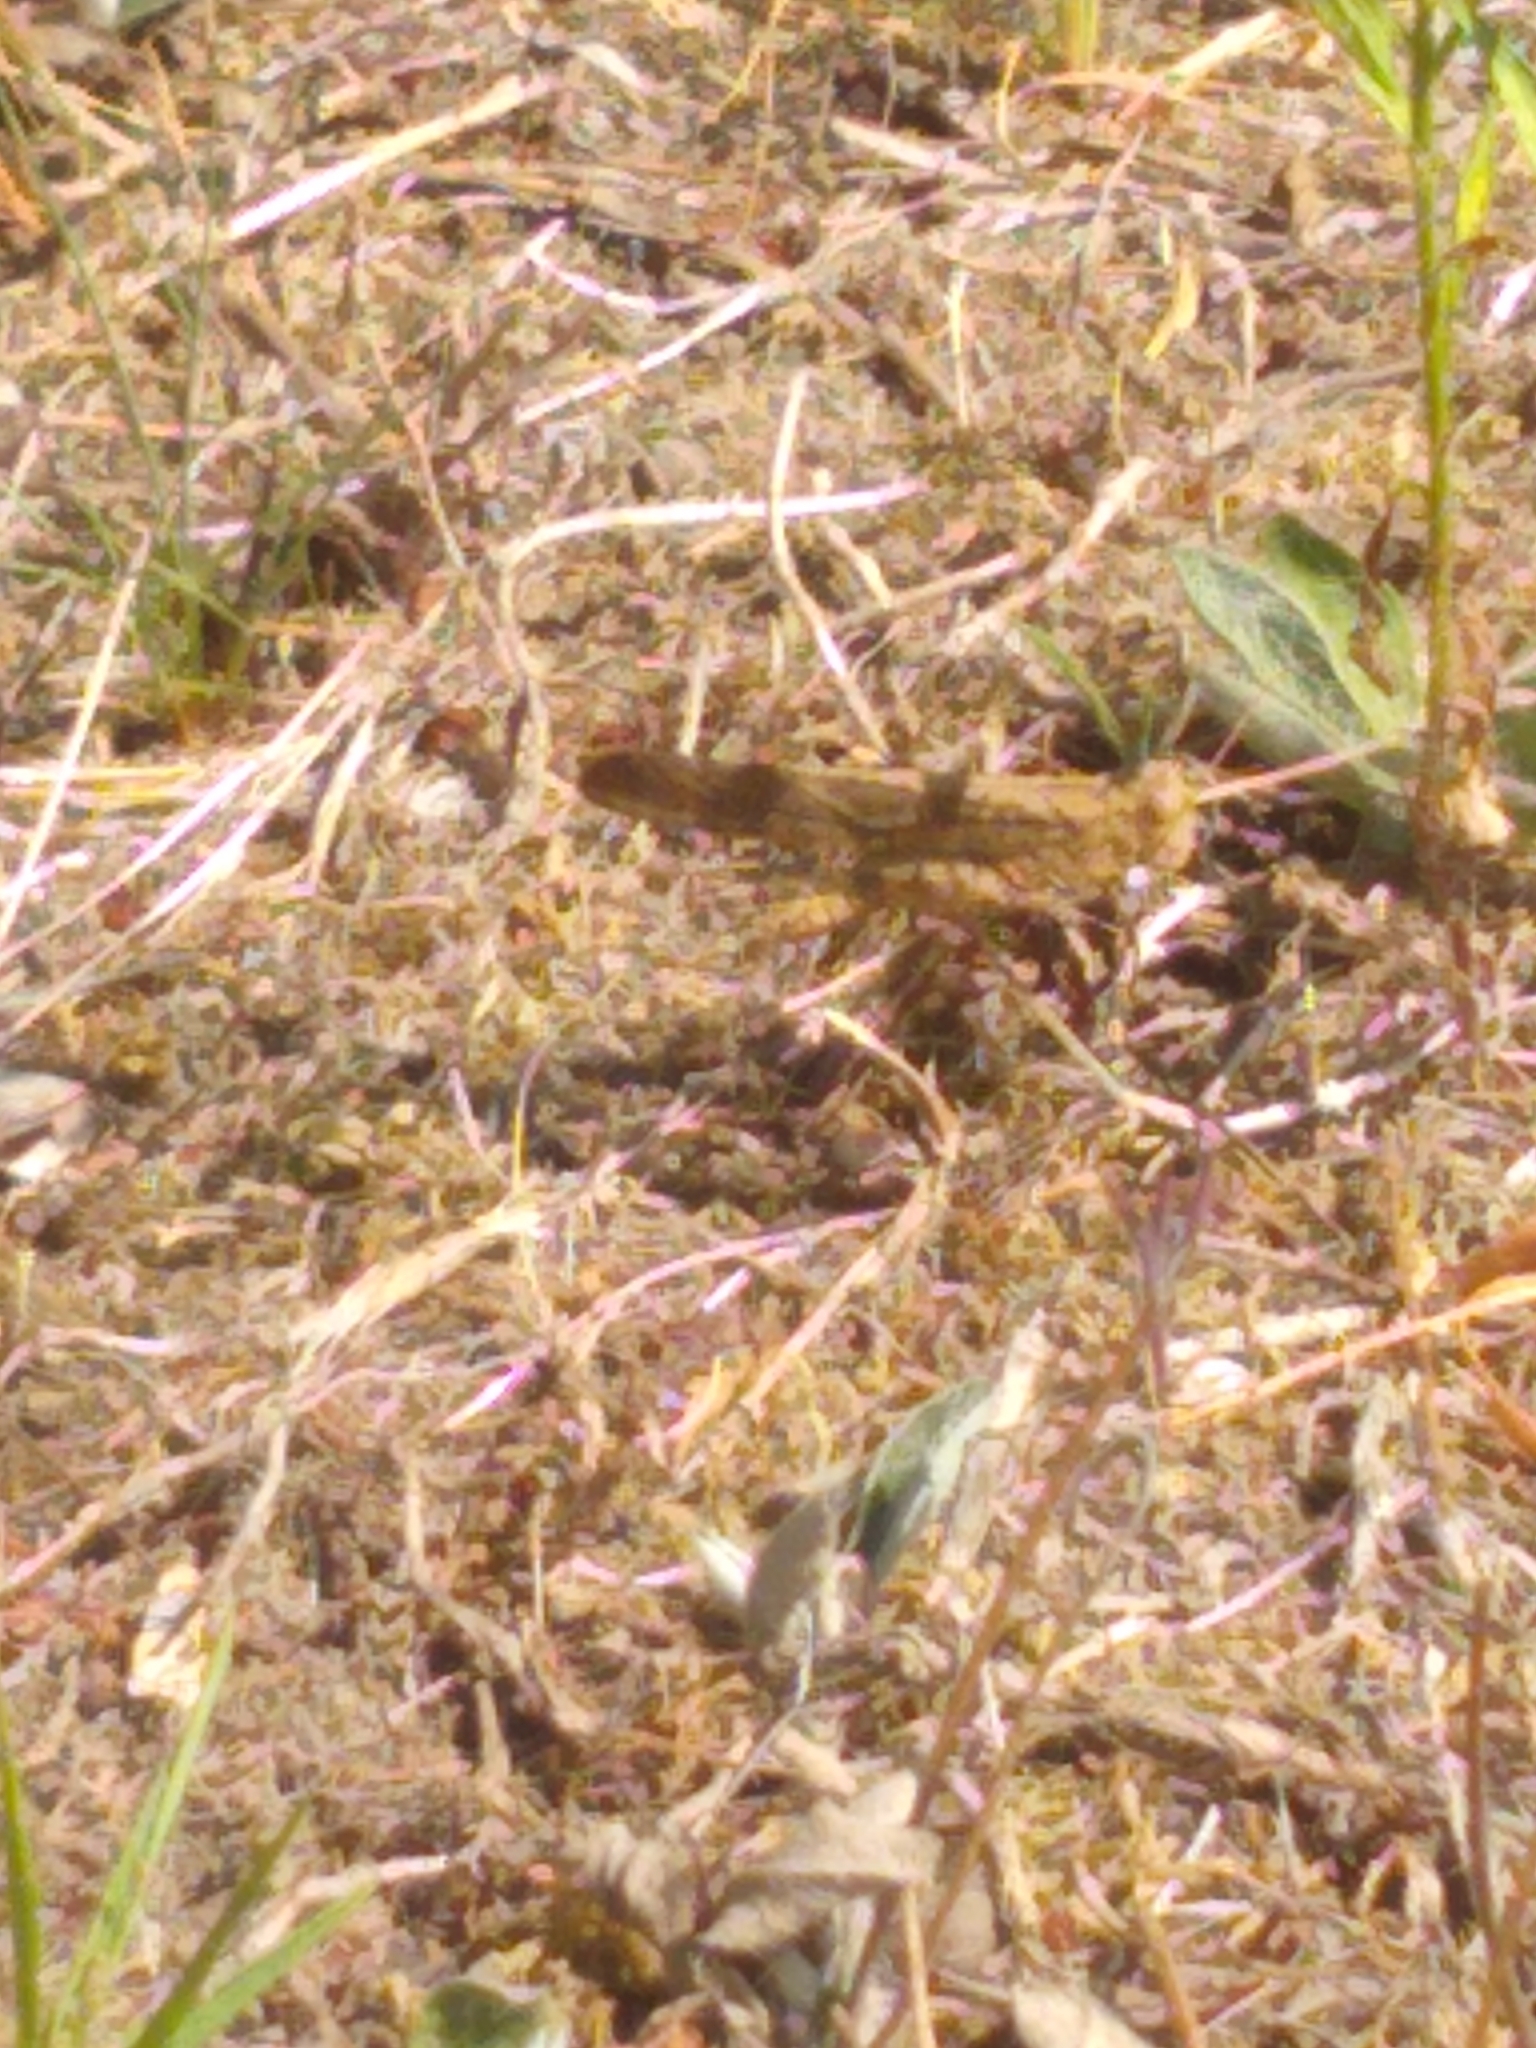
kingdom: Animalia
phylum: Arthropoda
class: Insecta
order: Orthoptera
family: Acrididae
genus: Dissosteira
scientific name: Dissosteira carolina
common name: Carolina grasshopper
